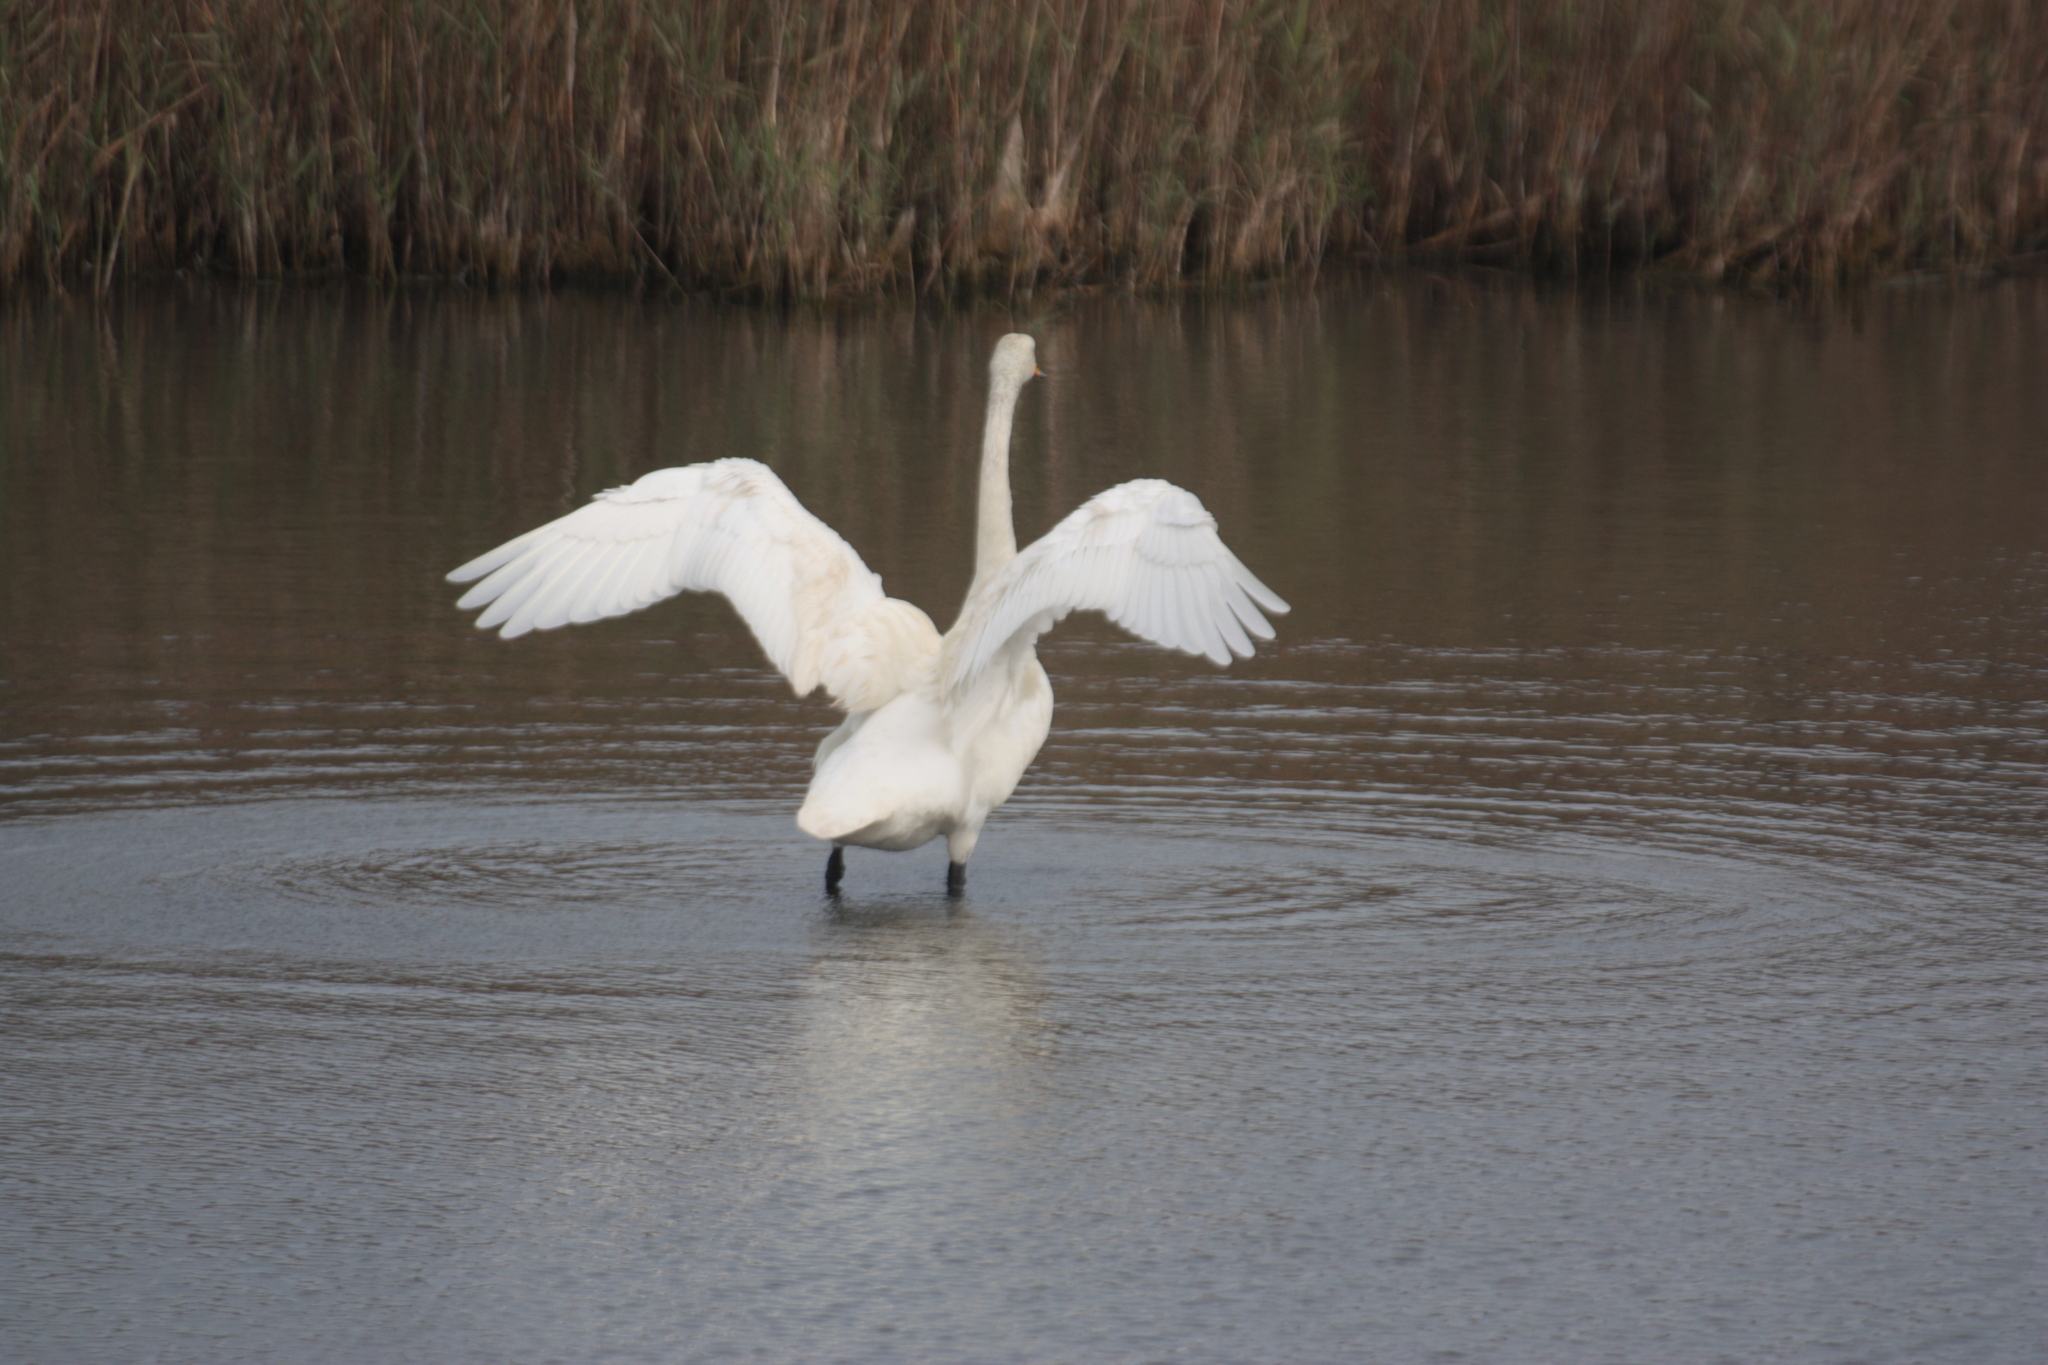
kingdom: Animalia
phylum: Chordata
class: Aves
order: Anseriformes
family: Anatidae
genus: Cygnus
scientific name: Cygnus cygnus
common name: Whooper swan
